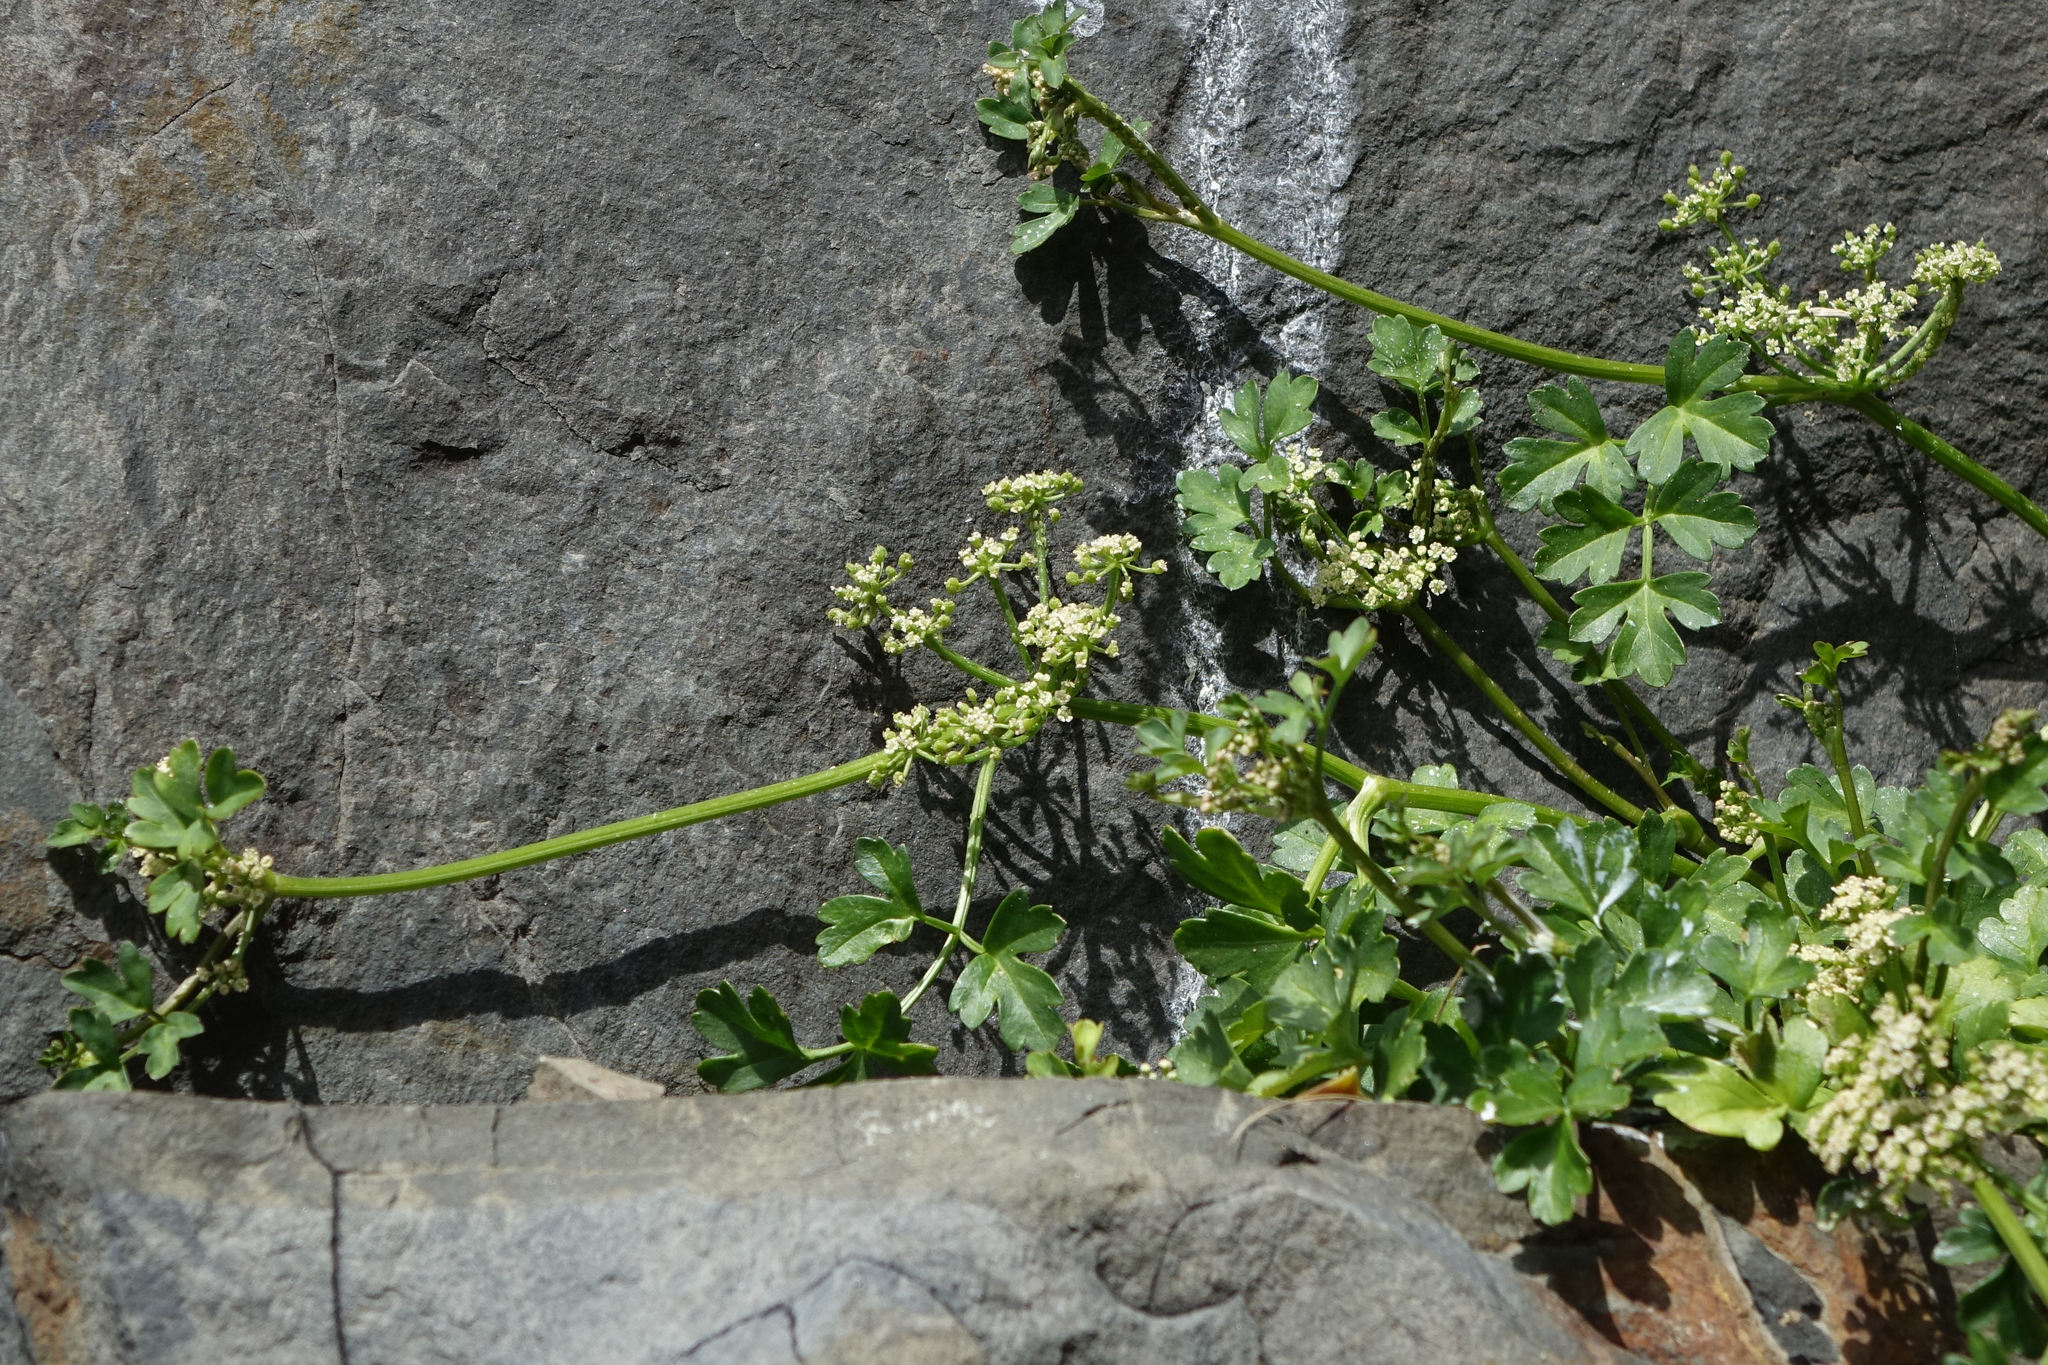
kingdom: Plantae
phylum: Tracheophyta
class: Magnoliopsida
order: Apiales
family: Apiaceae
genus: Apium
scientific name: Apium prostratum
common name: Prostrate marshwort
